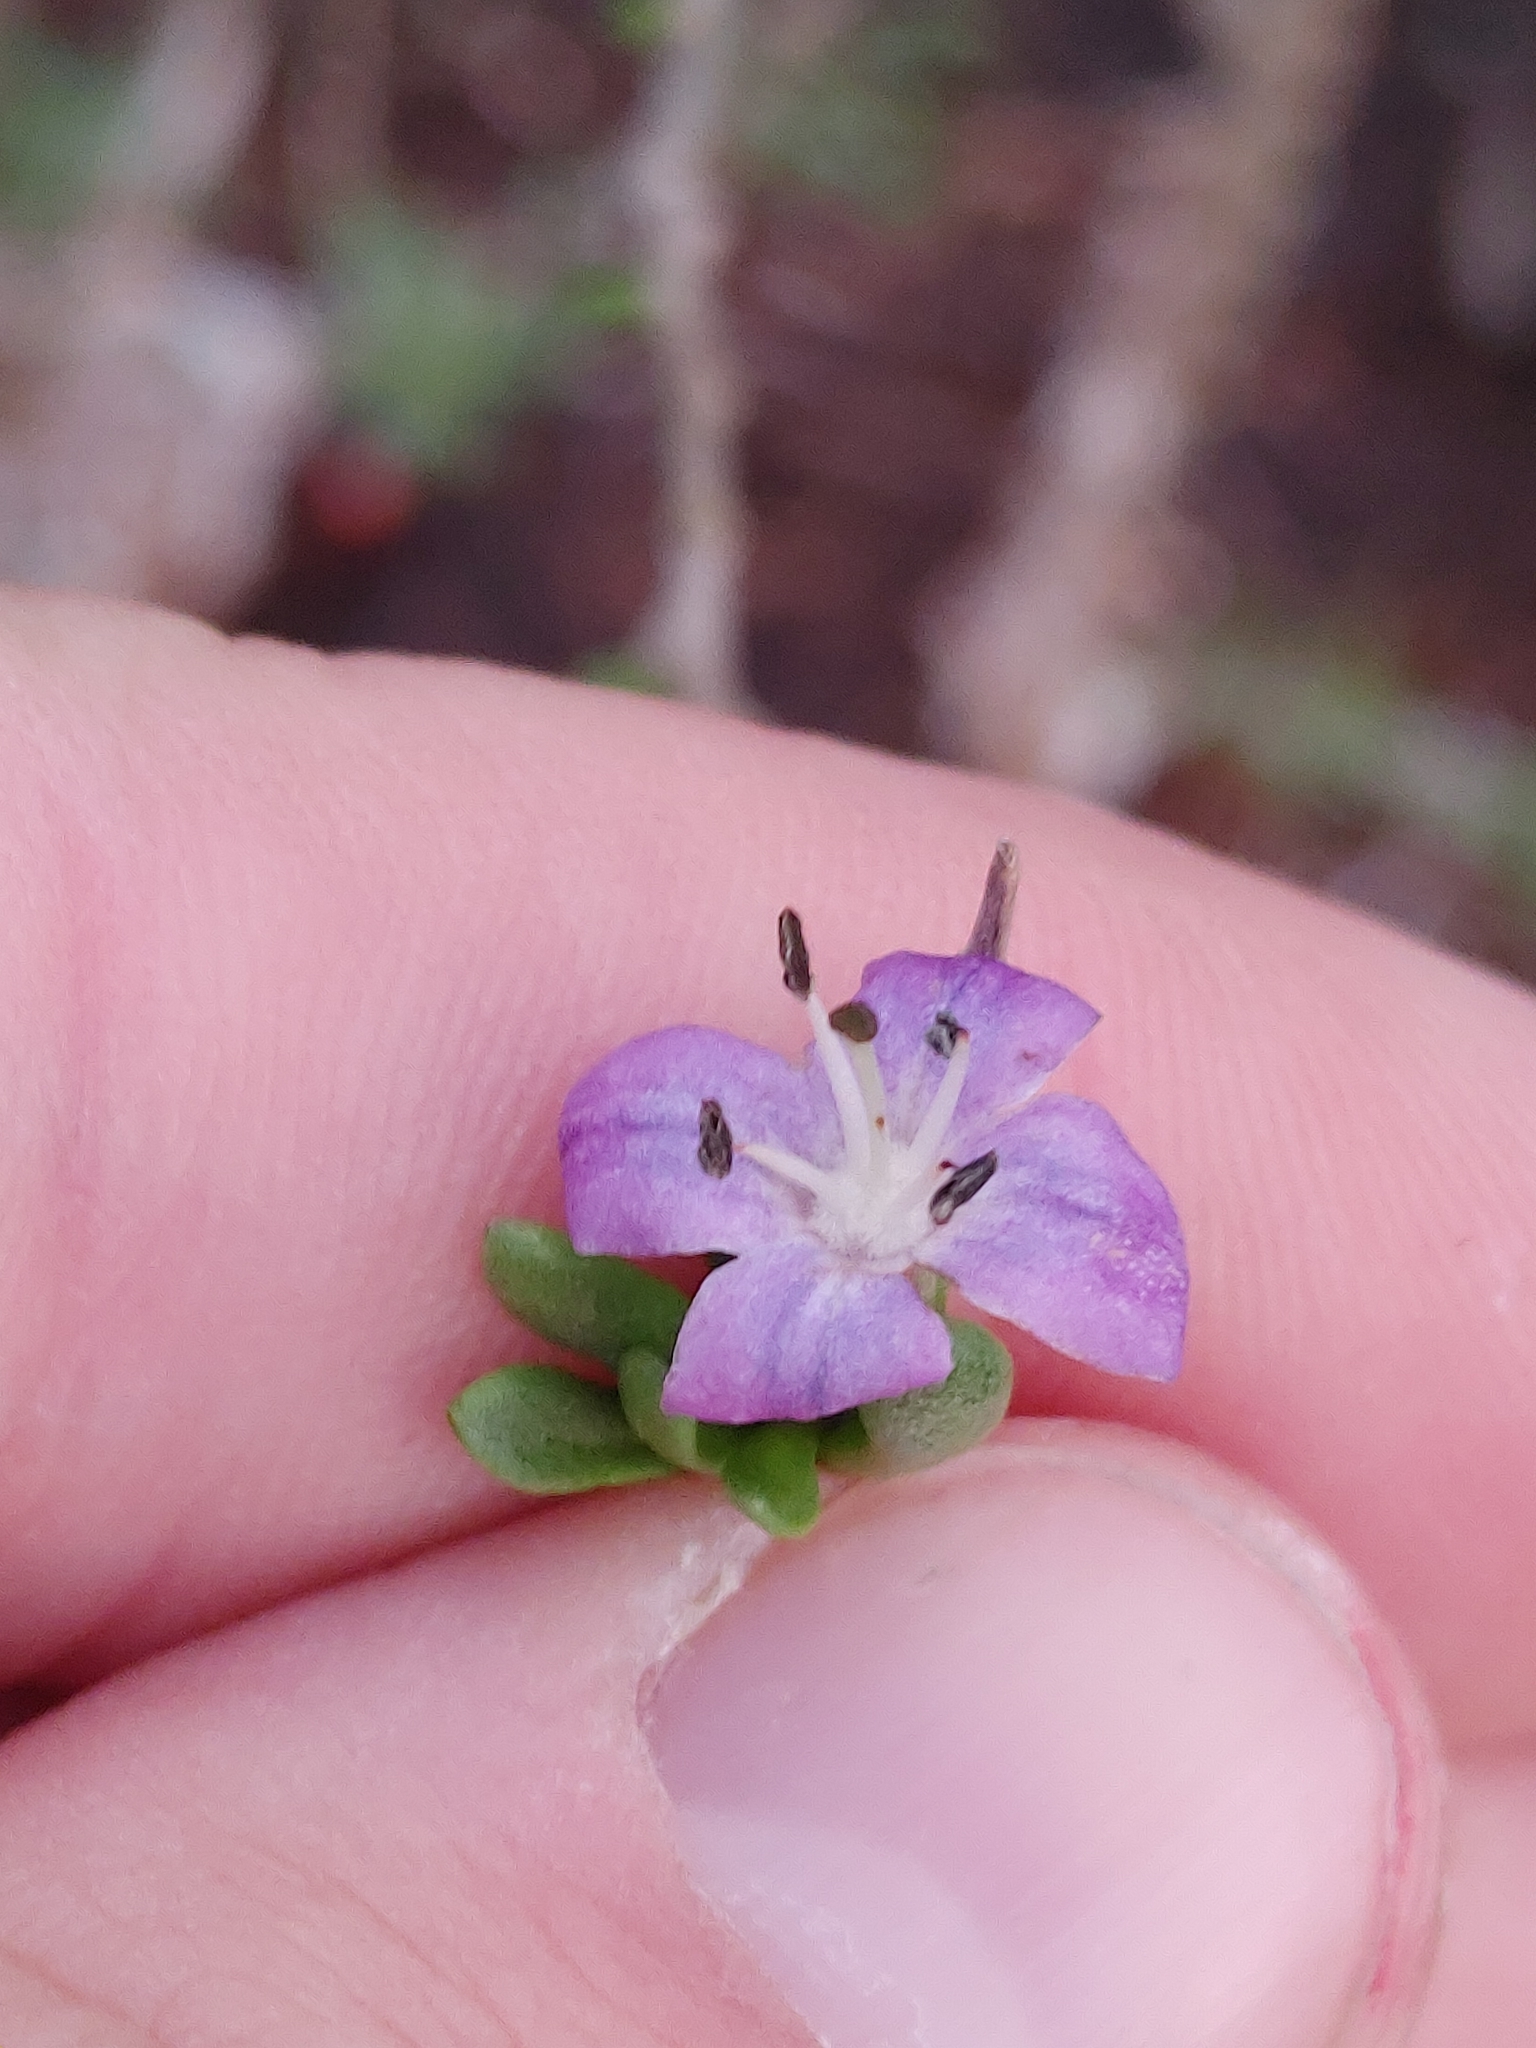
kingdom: Plantae
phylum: Tracheophyta
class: Magnoliopsida
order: Solanales
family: Solanaceae
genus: Lycium
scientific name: Lycium carolinianum
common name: Christmasberry
